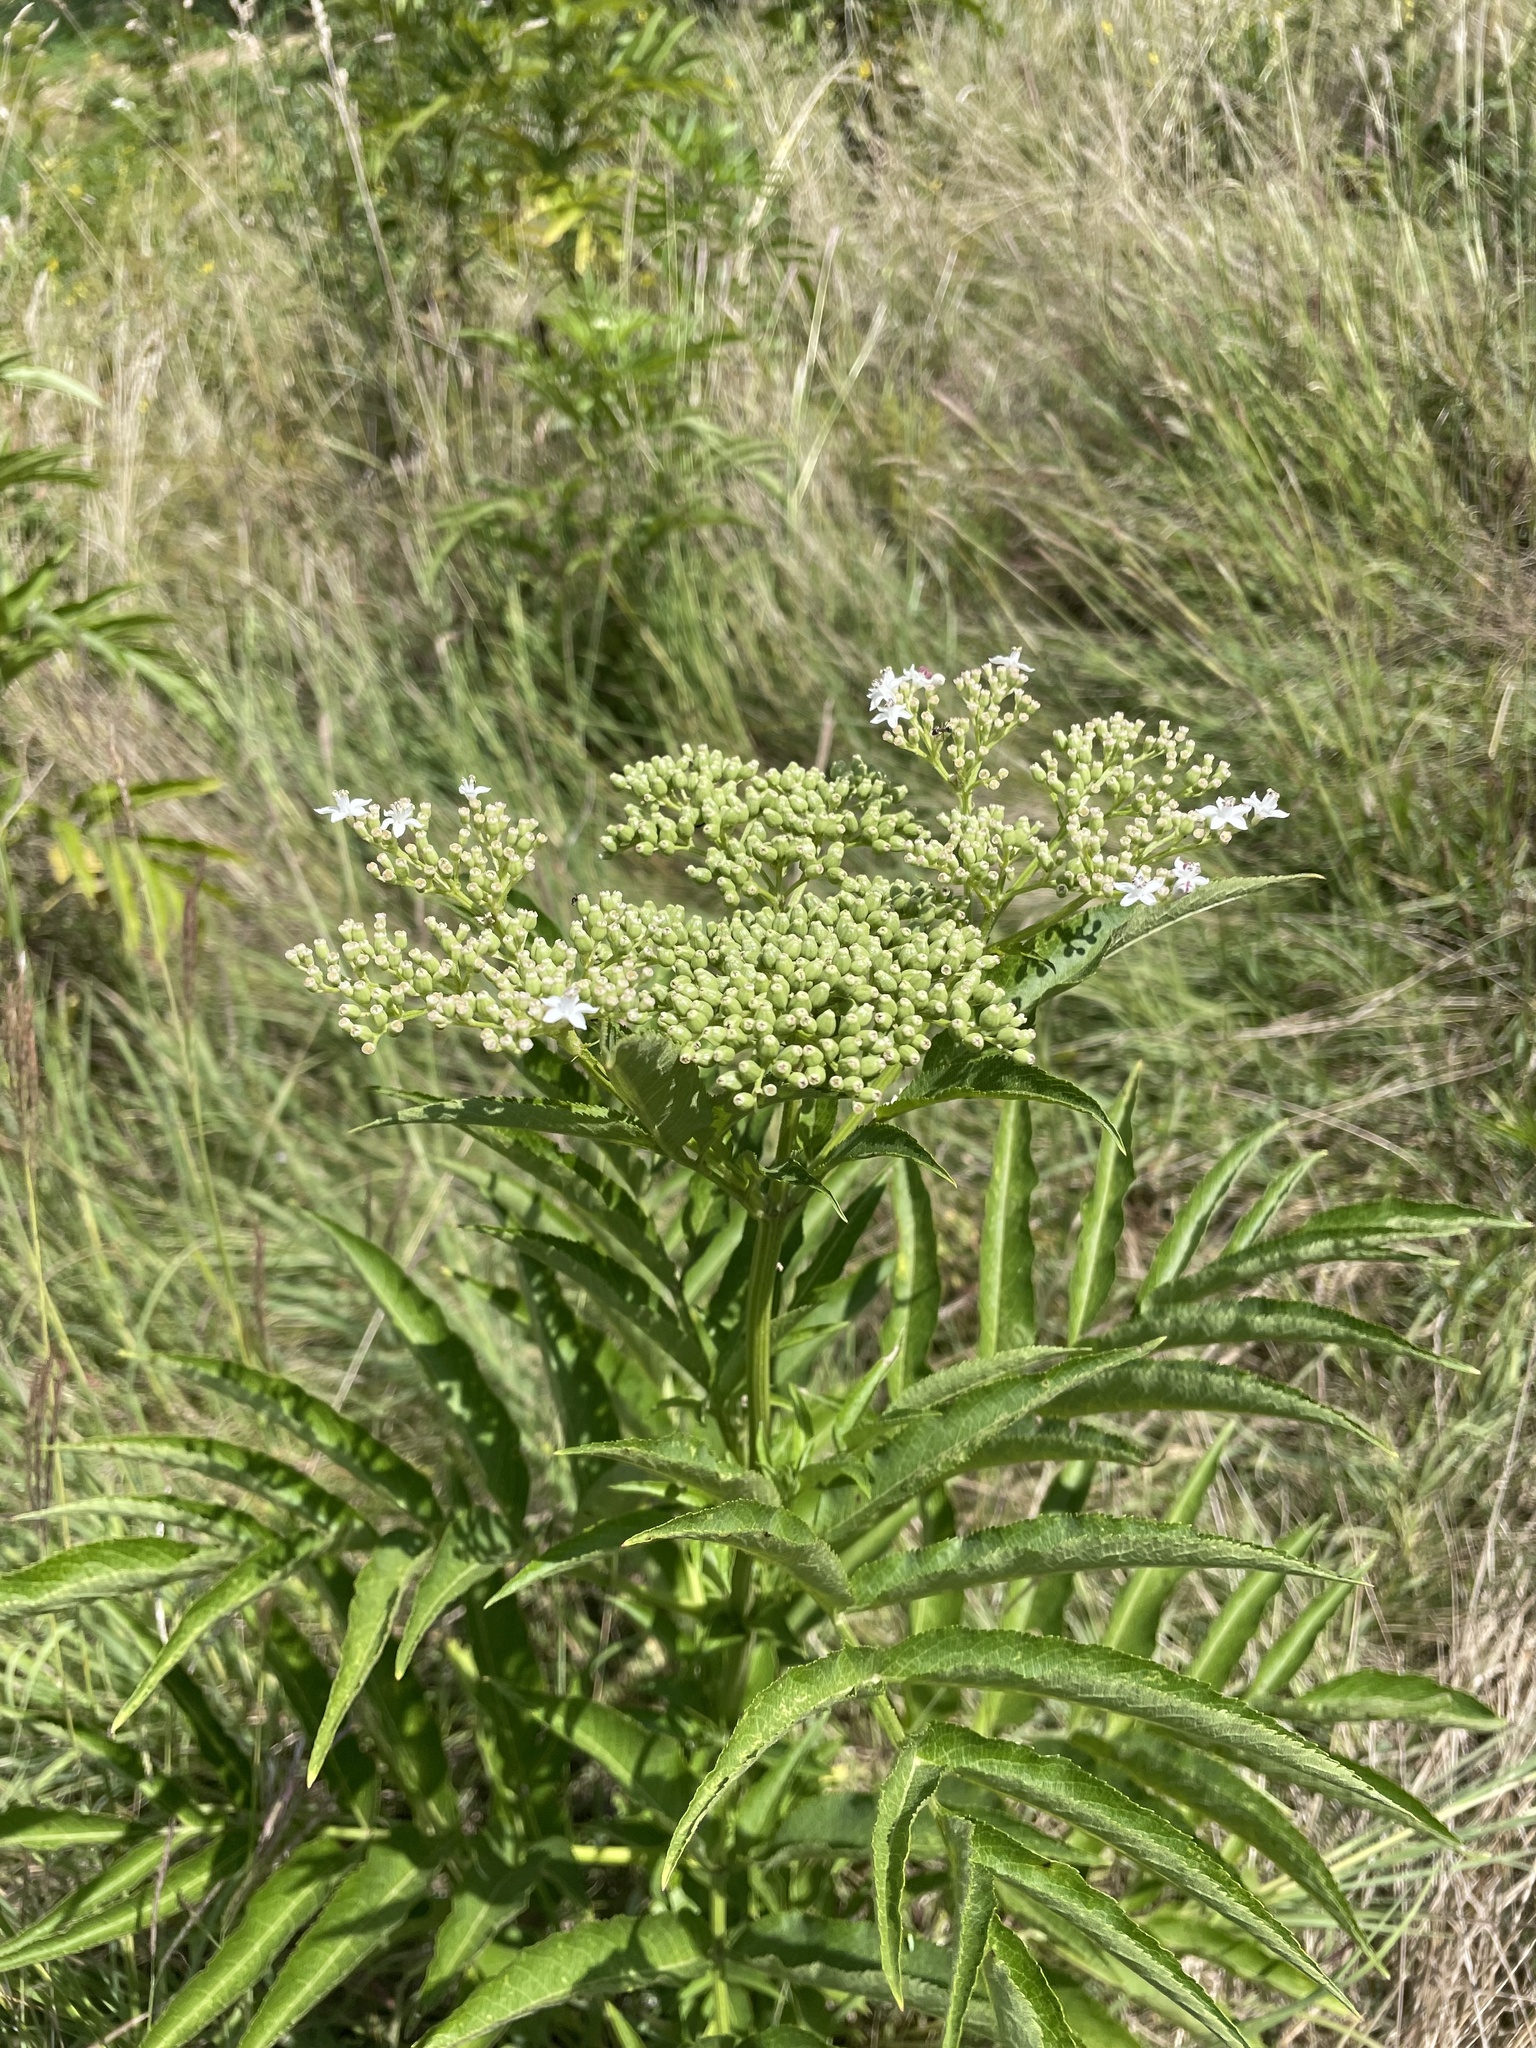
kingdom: Plantae
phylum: Tracheophyta
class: Magnoliopsida
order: Dipsacales
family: Viburnaceae
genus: Sambucus
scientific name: Sambucus ebulus
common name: Dwarf elder
